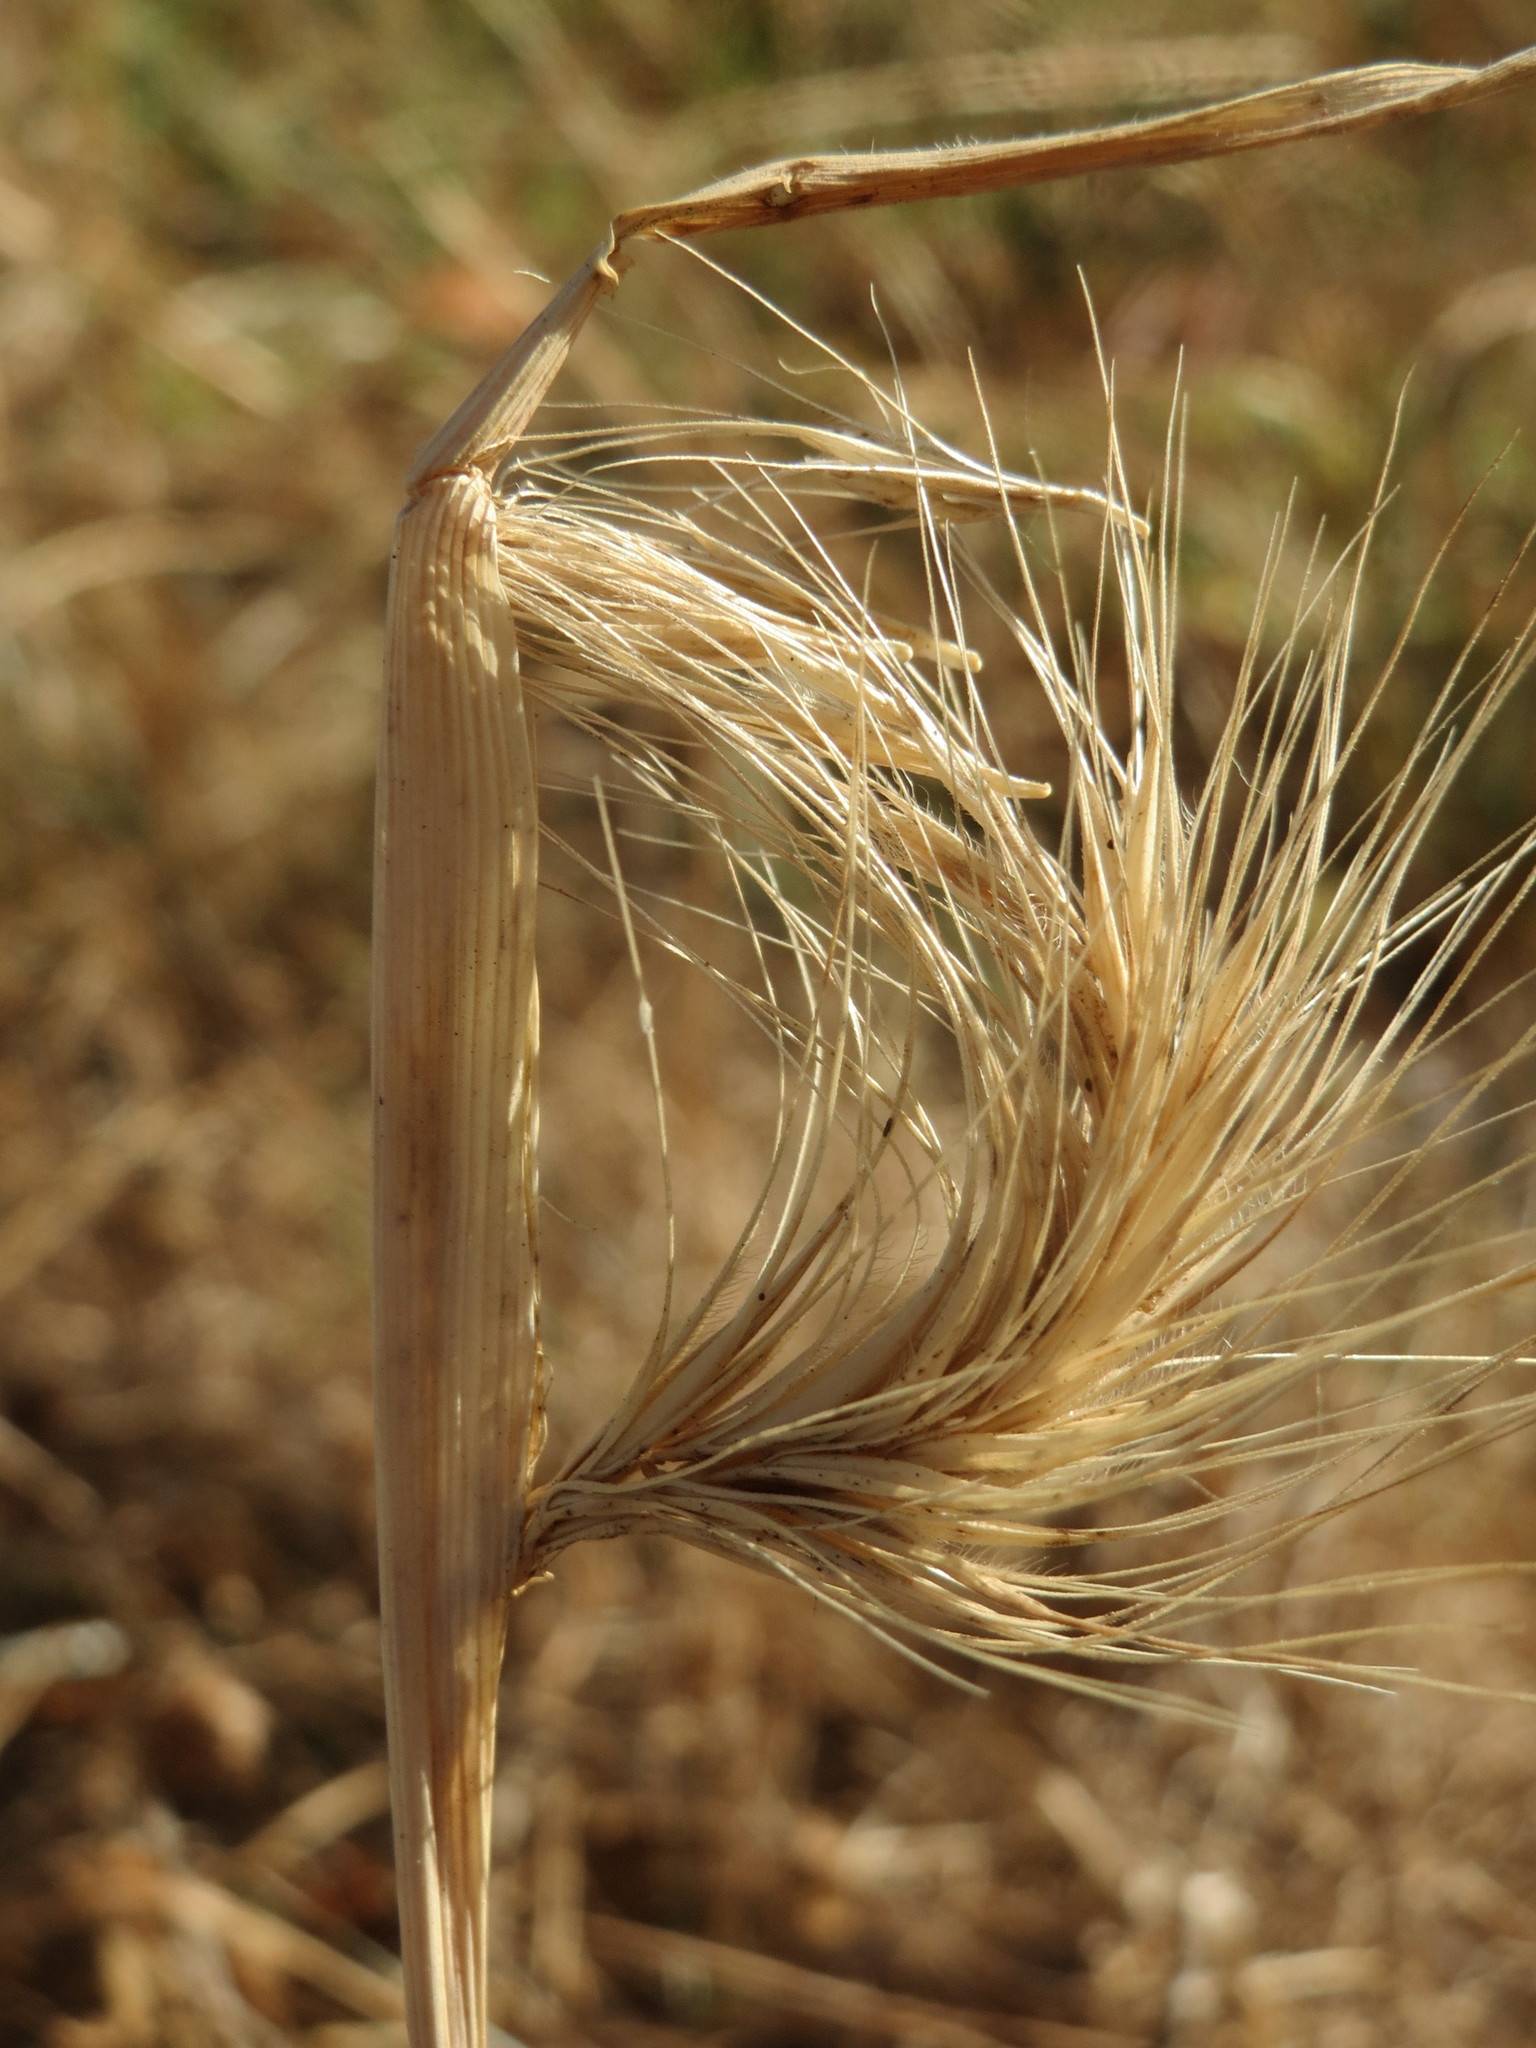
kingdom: Plantae
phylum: Tracheophyta
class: Liliopsida
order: Poales
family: Poaceae
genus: Hordeum
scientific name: Hordeum murinum
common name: Wall barley
